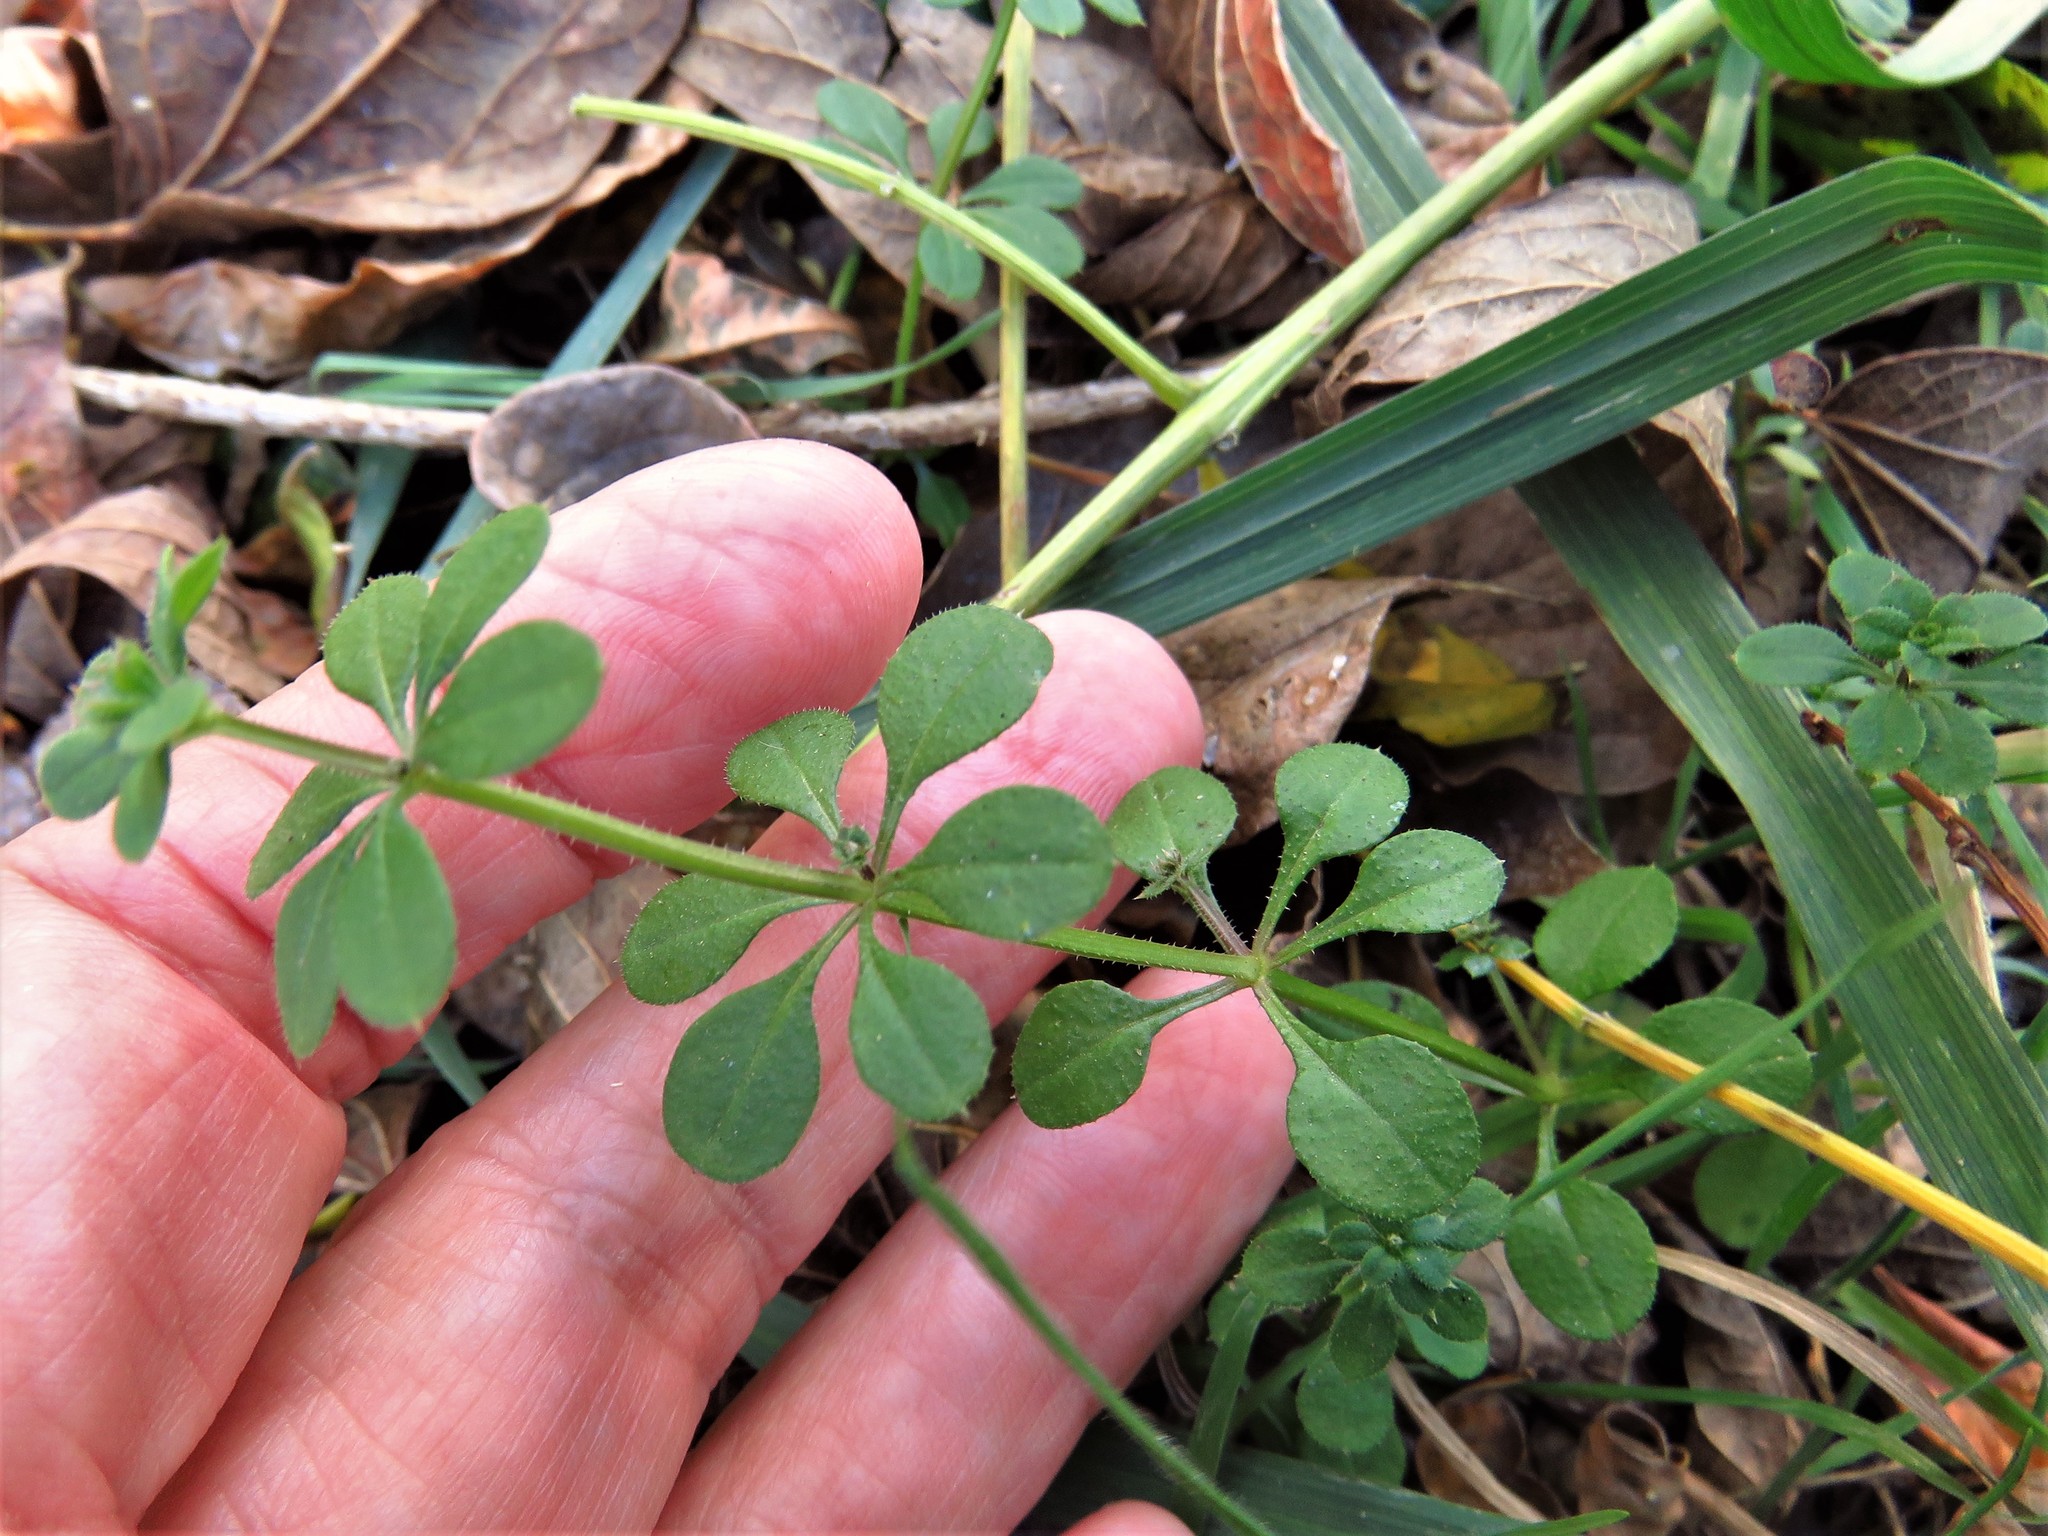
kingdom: Plantae
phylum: Tracheophyta
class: Magnoliopsida
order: Gentianales
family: Rubiaceae
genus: Galium
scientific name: Galium aparine
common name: Cleavers
